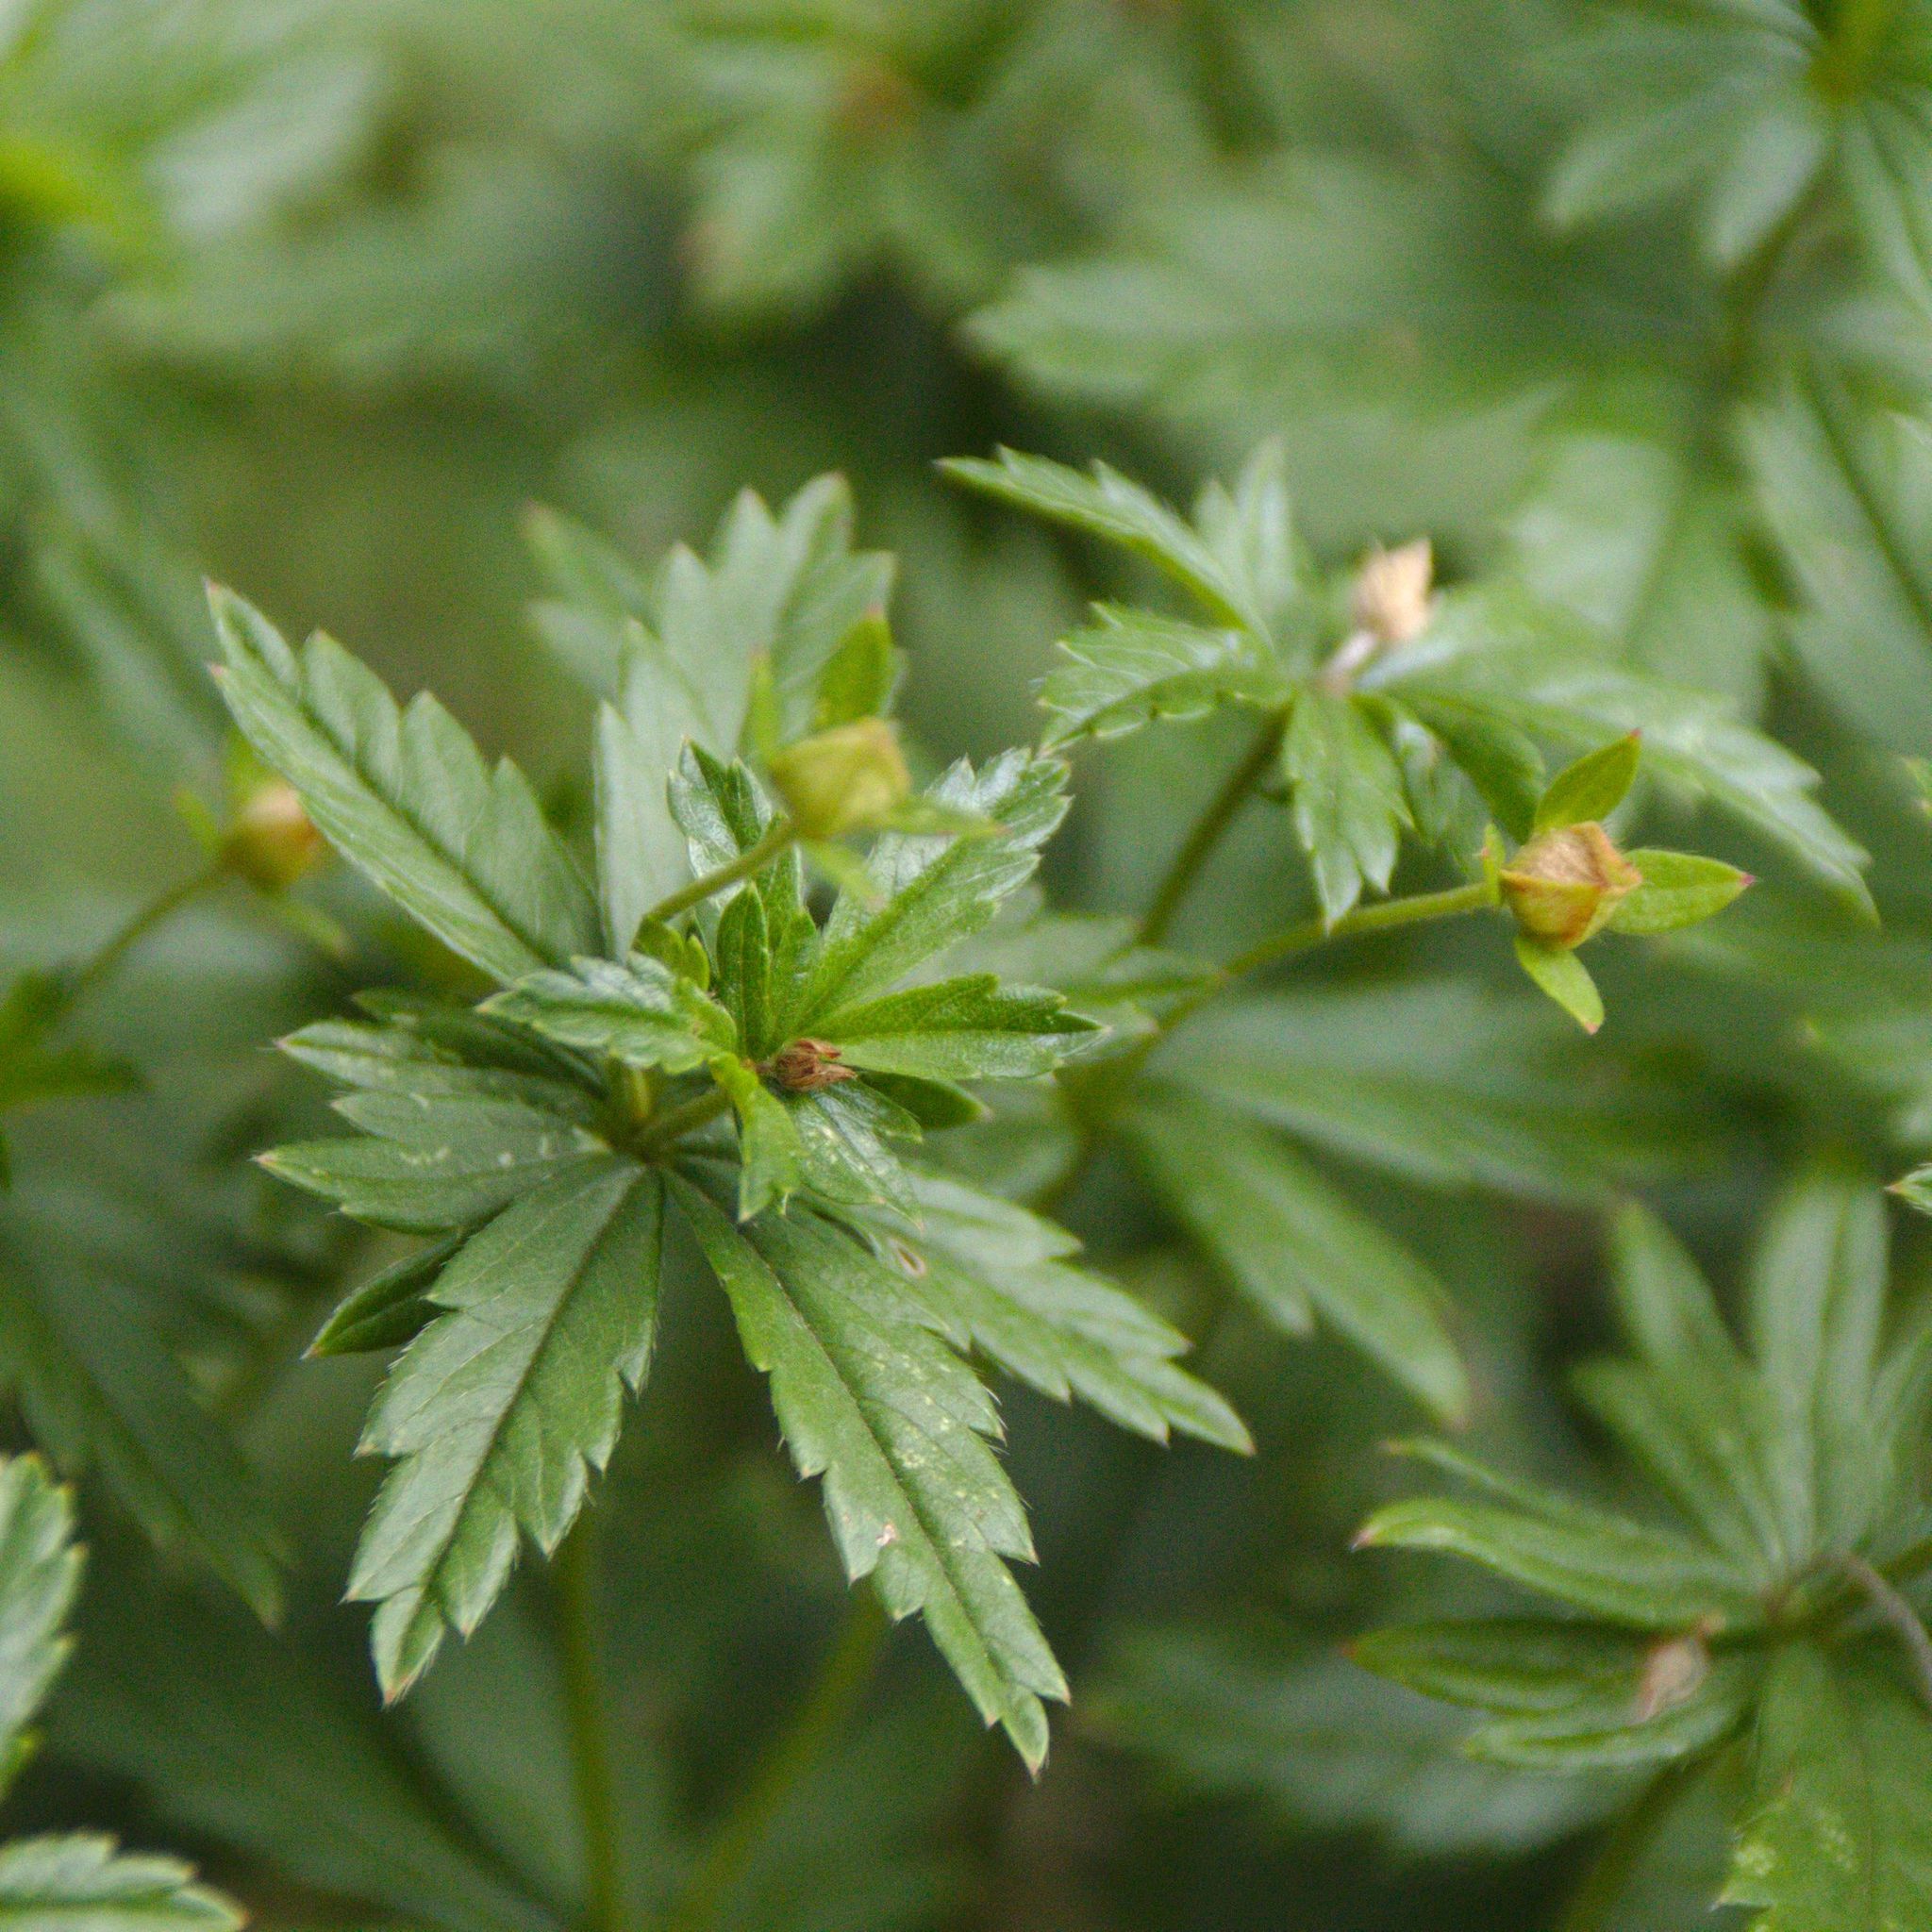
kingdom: Plantae
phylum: Tracheophyta
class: Magnoliopsida
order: Rosales
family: Rosaceae
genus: Potentilla
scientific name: Potentilla erecta
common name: Tormentil
